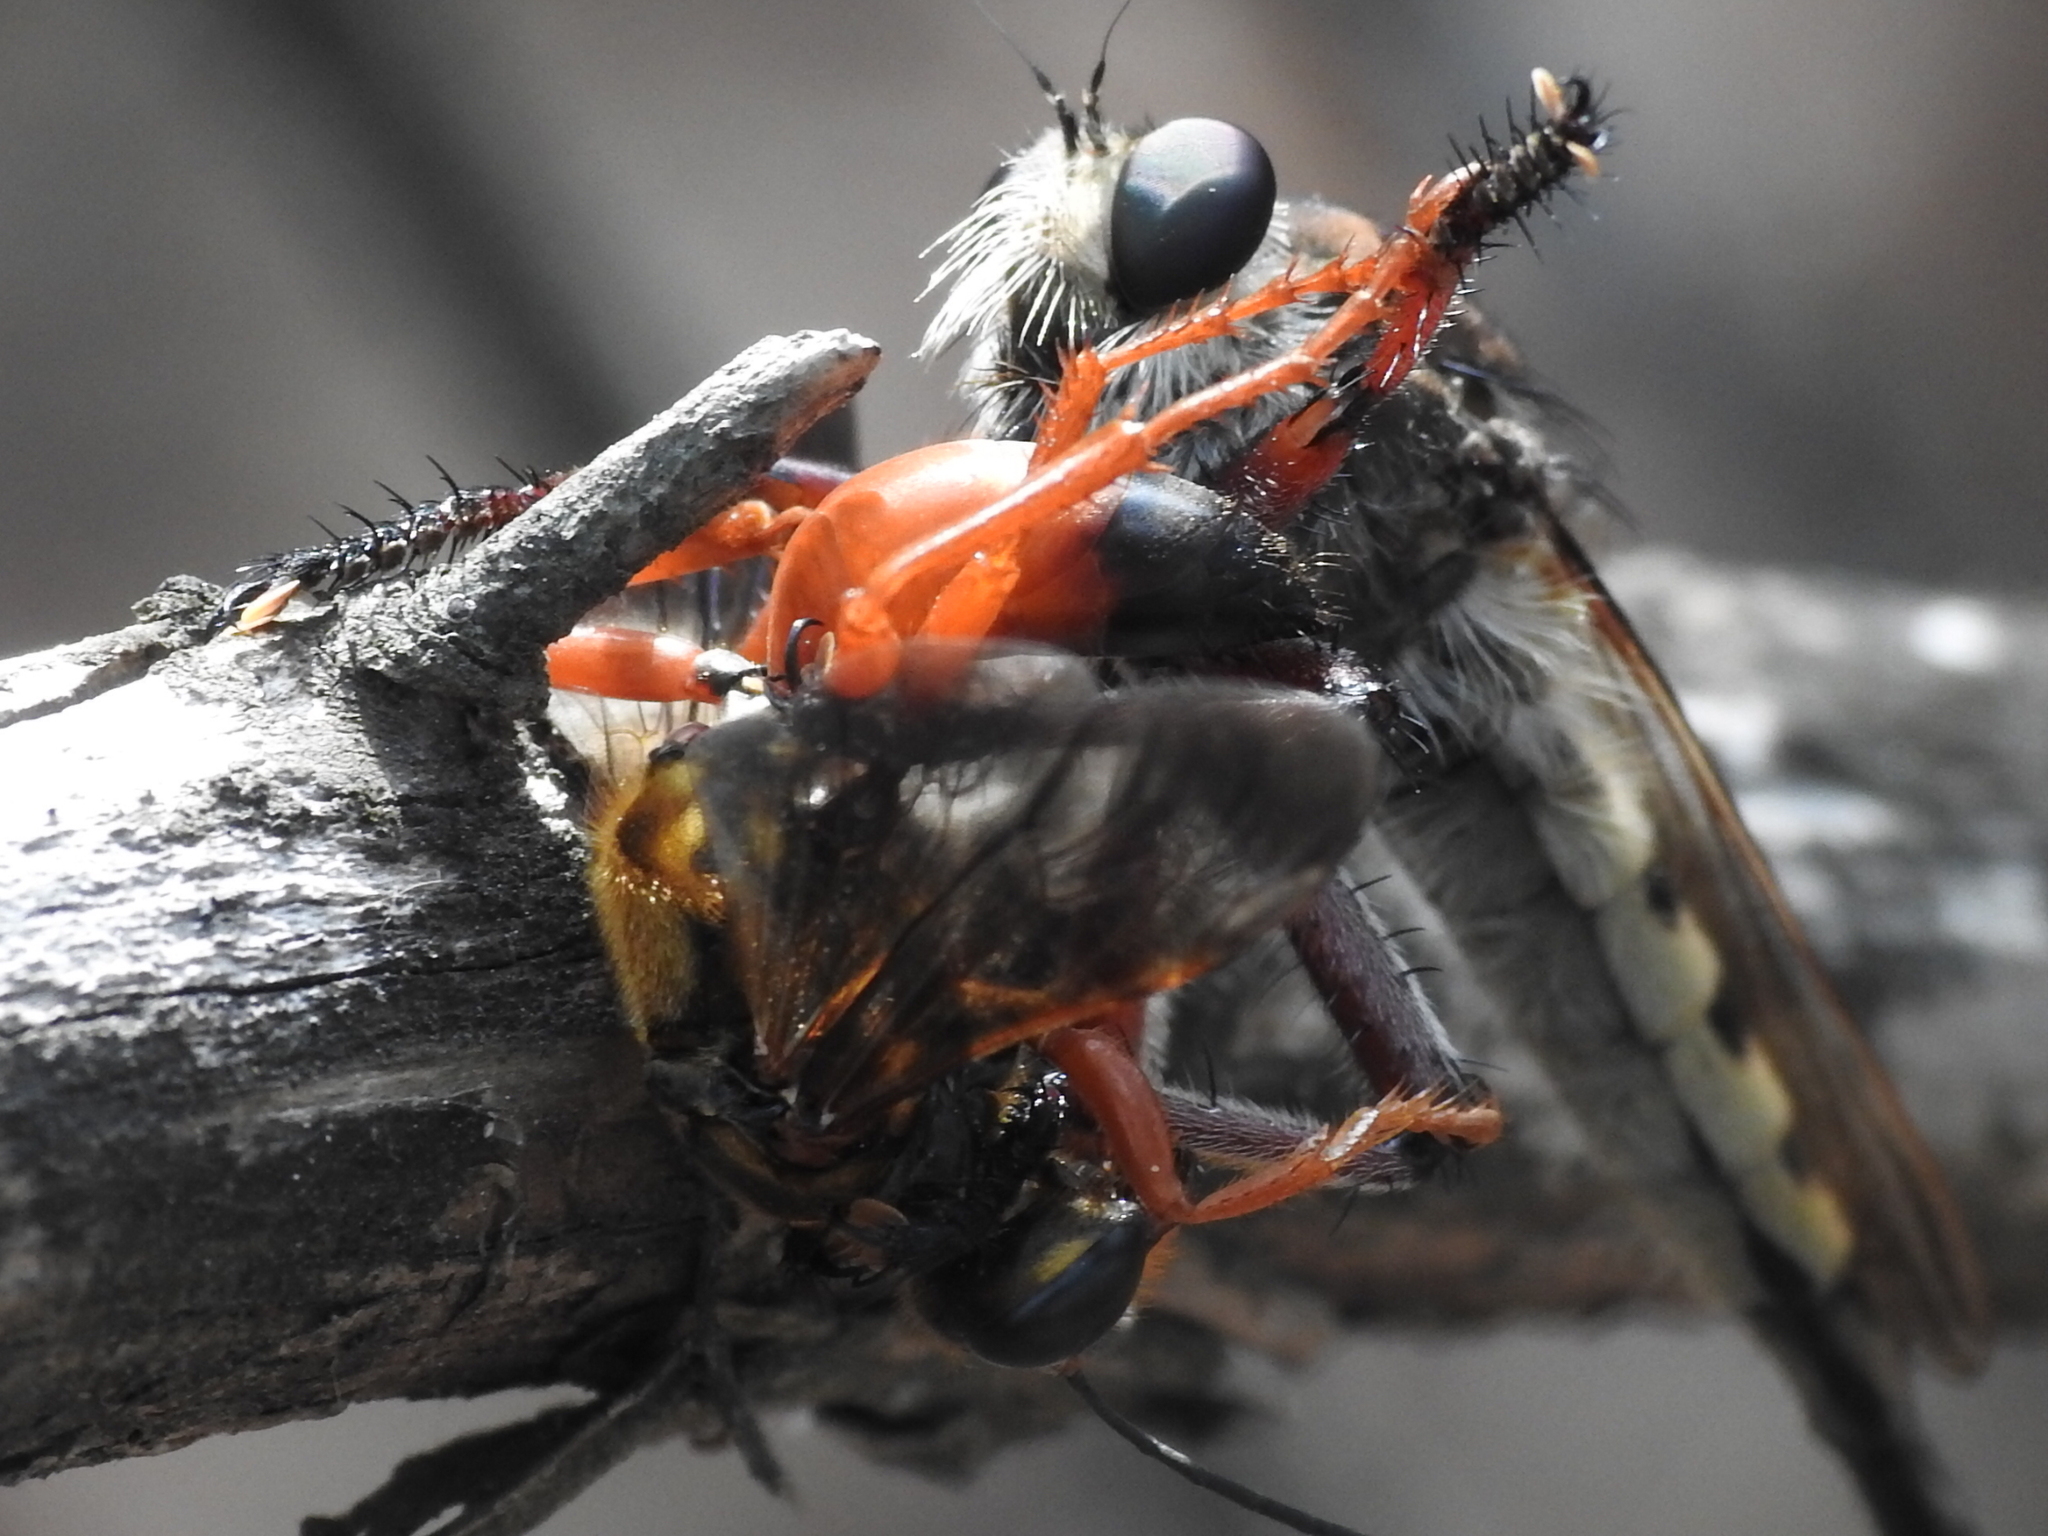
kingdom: Animalia
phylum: Arthropoda
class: Insecta
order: Hymenoptera
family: Sphecidae
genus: Sphex
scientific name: Sphex ichneumoneus
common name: Great golden digger wasp
